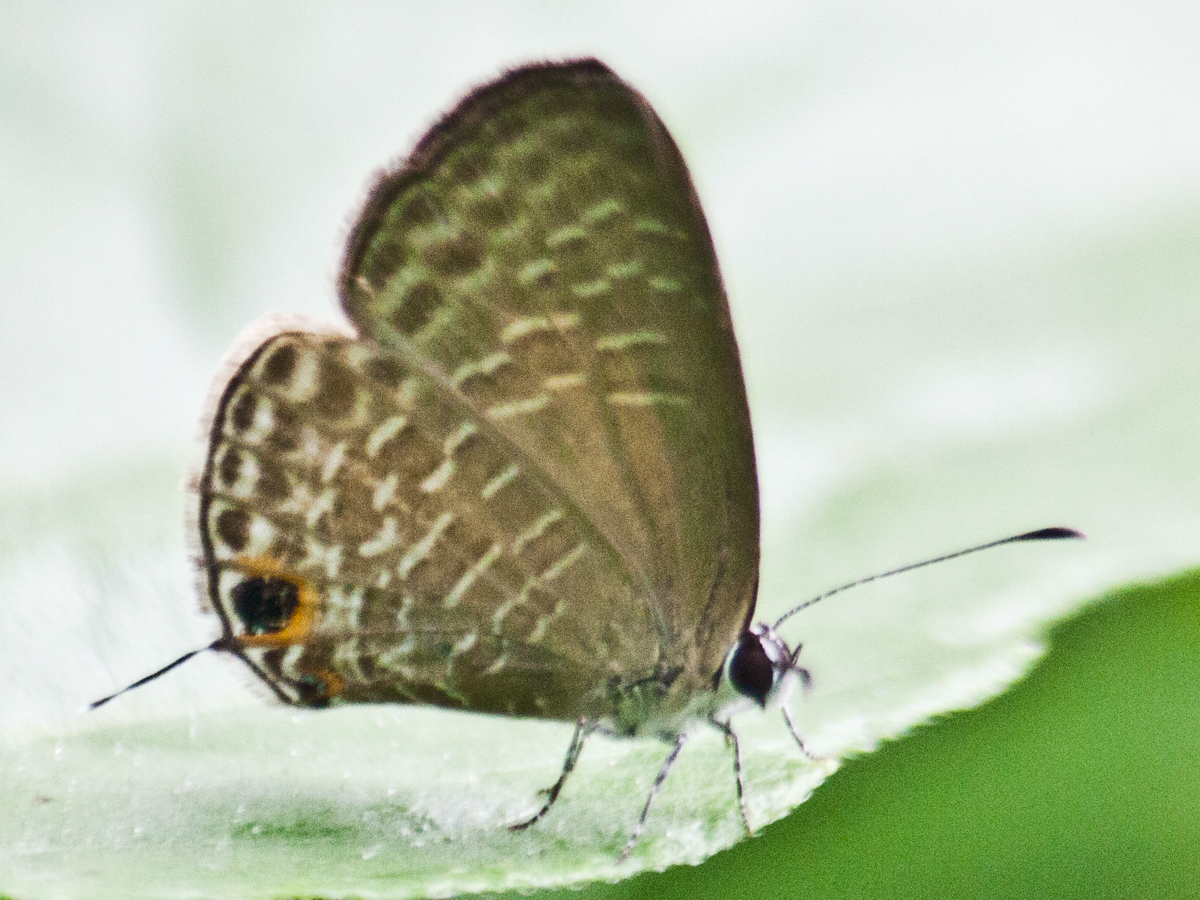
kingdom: Animalia
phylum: Arthropoda
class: Insecta
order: Lepidoptera
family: Lycaenidae
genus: Jamides
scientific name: Jamides bochus
